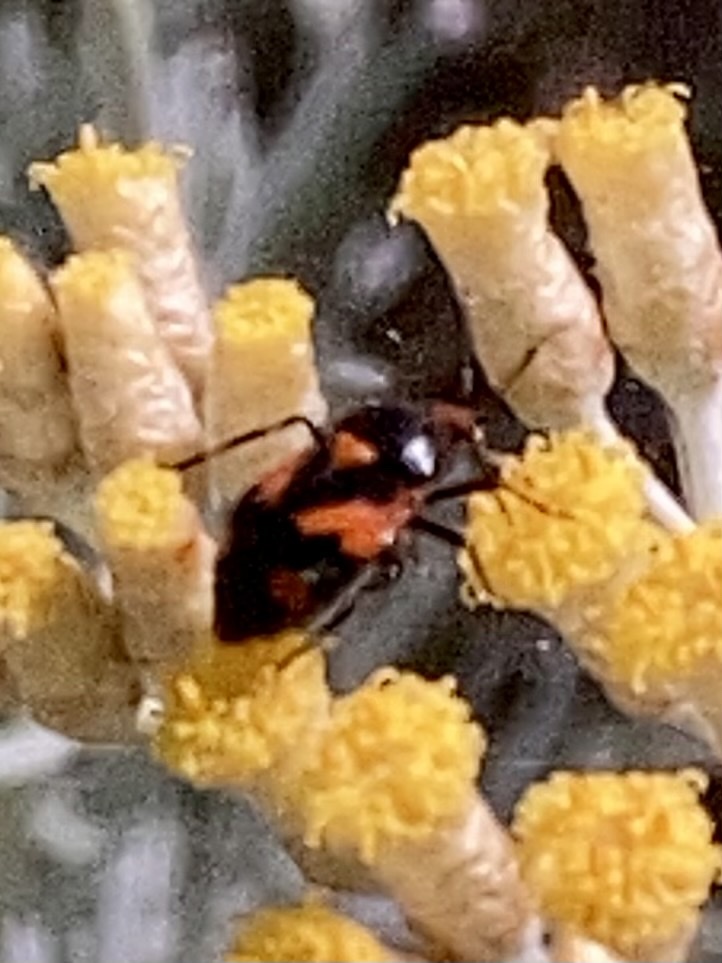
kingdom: Animalia
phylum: Arthropoda
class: Insecta
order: Hemiptera
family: Miridae
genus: Deraeocoris
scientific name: Deraeocoris schach
